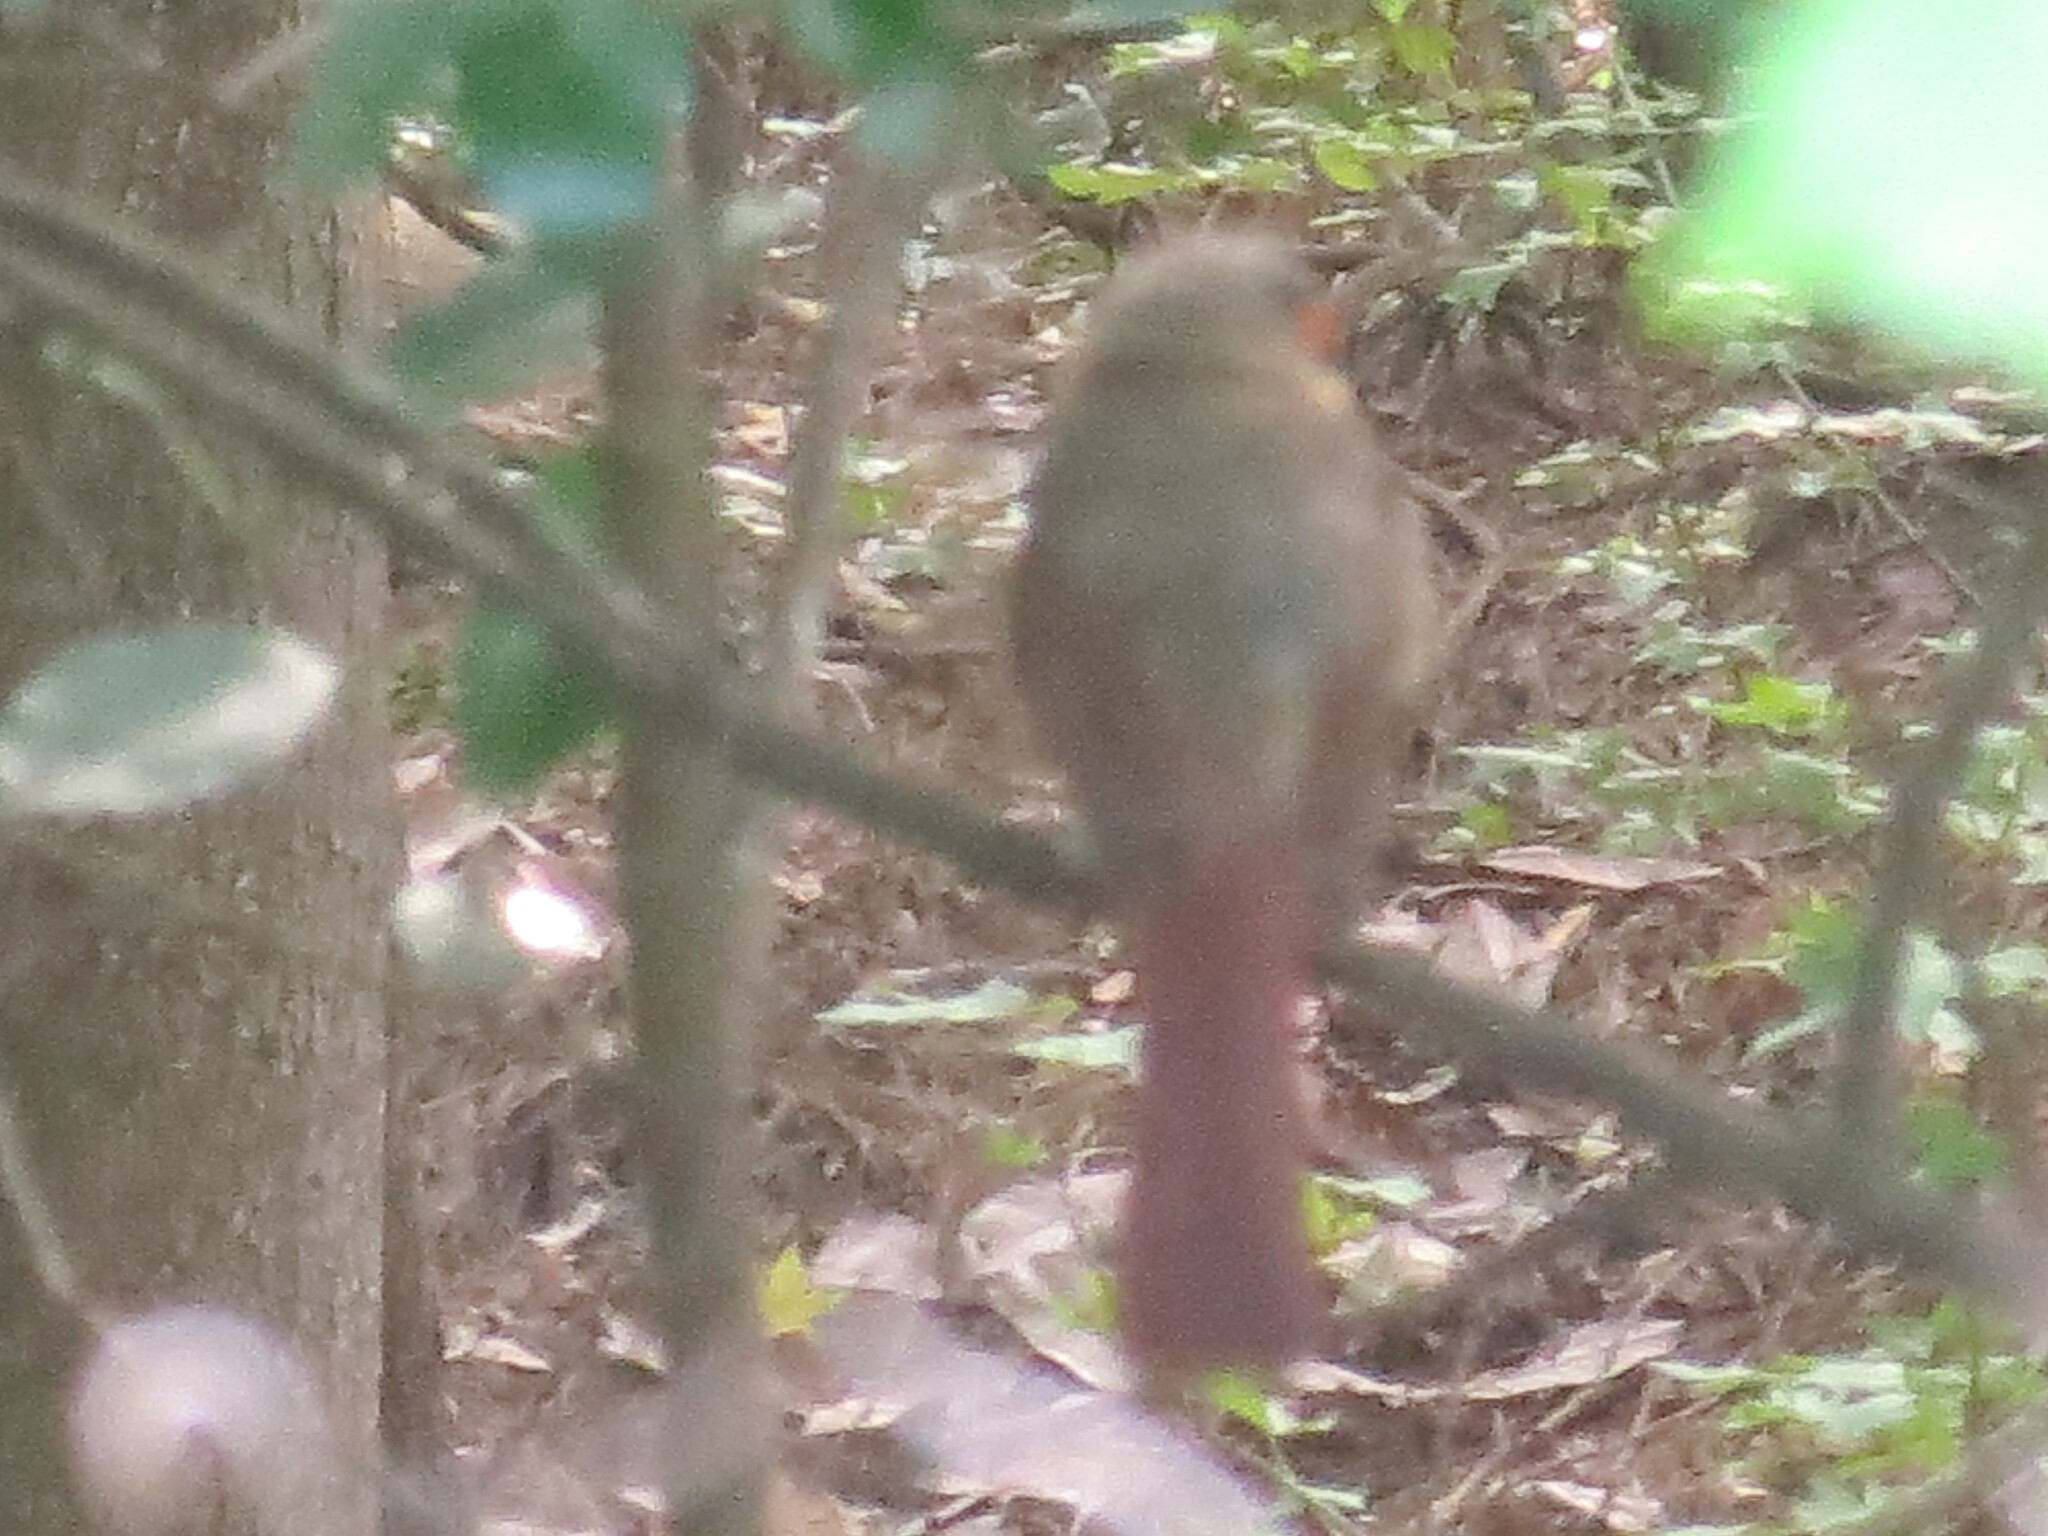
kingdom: Animalia
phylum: Chordata
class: Aves
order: Passeriformes
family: Cardinalidae
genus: Cardinalis
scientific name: Cardinalis cardinalis
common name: Northern cardinal
